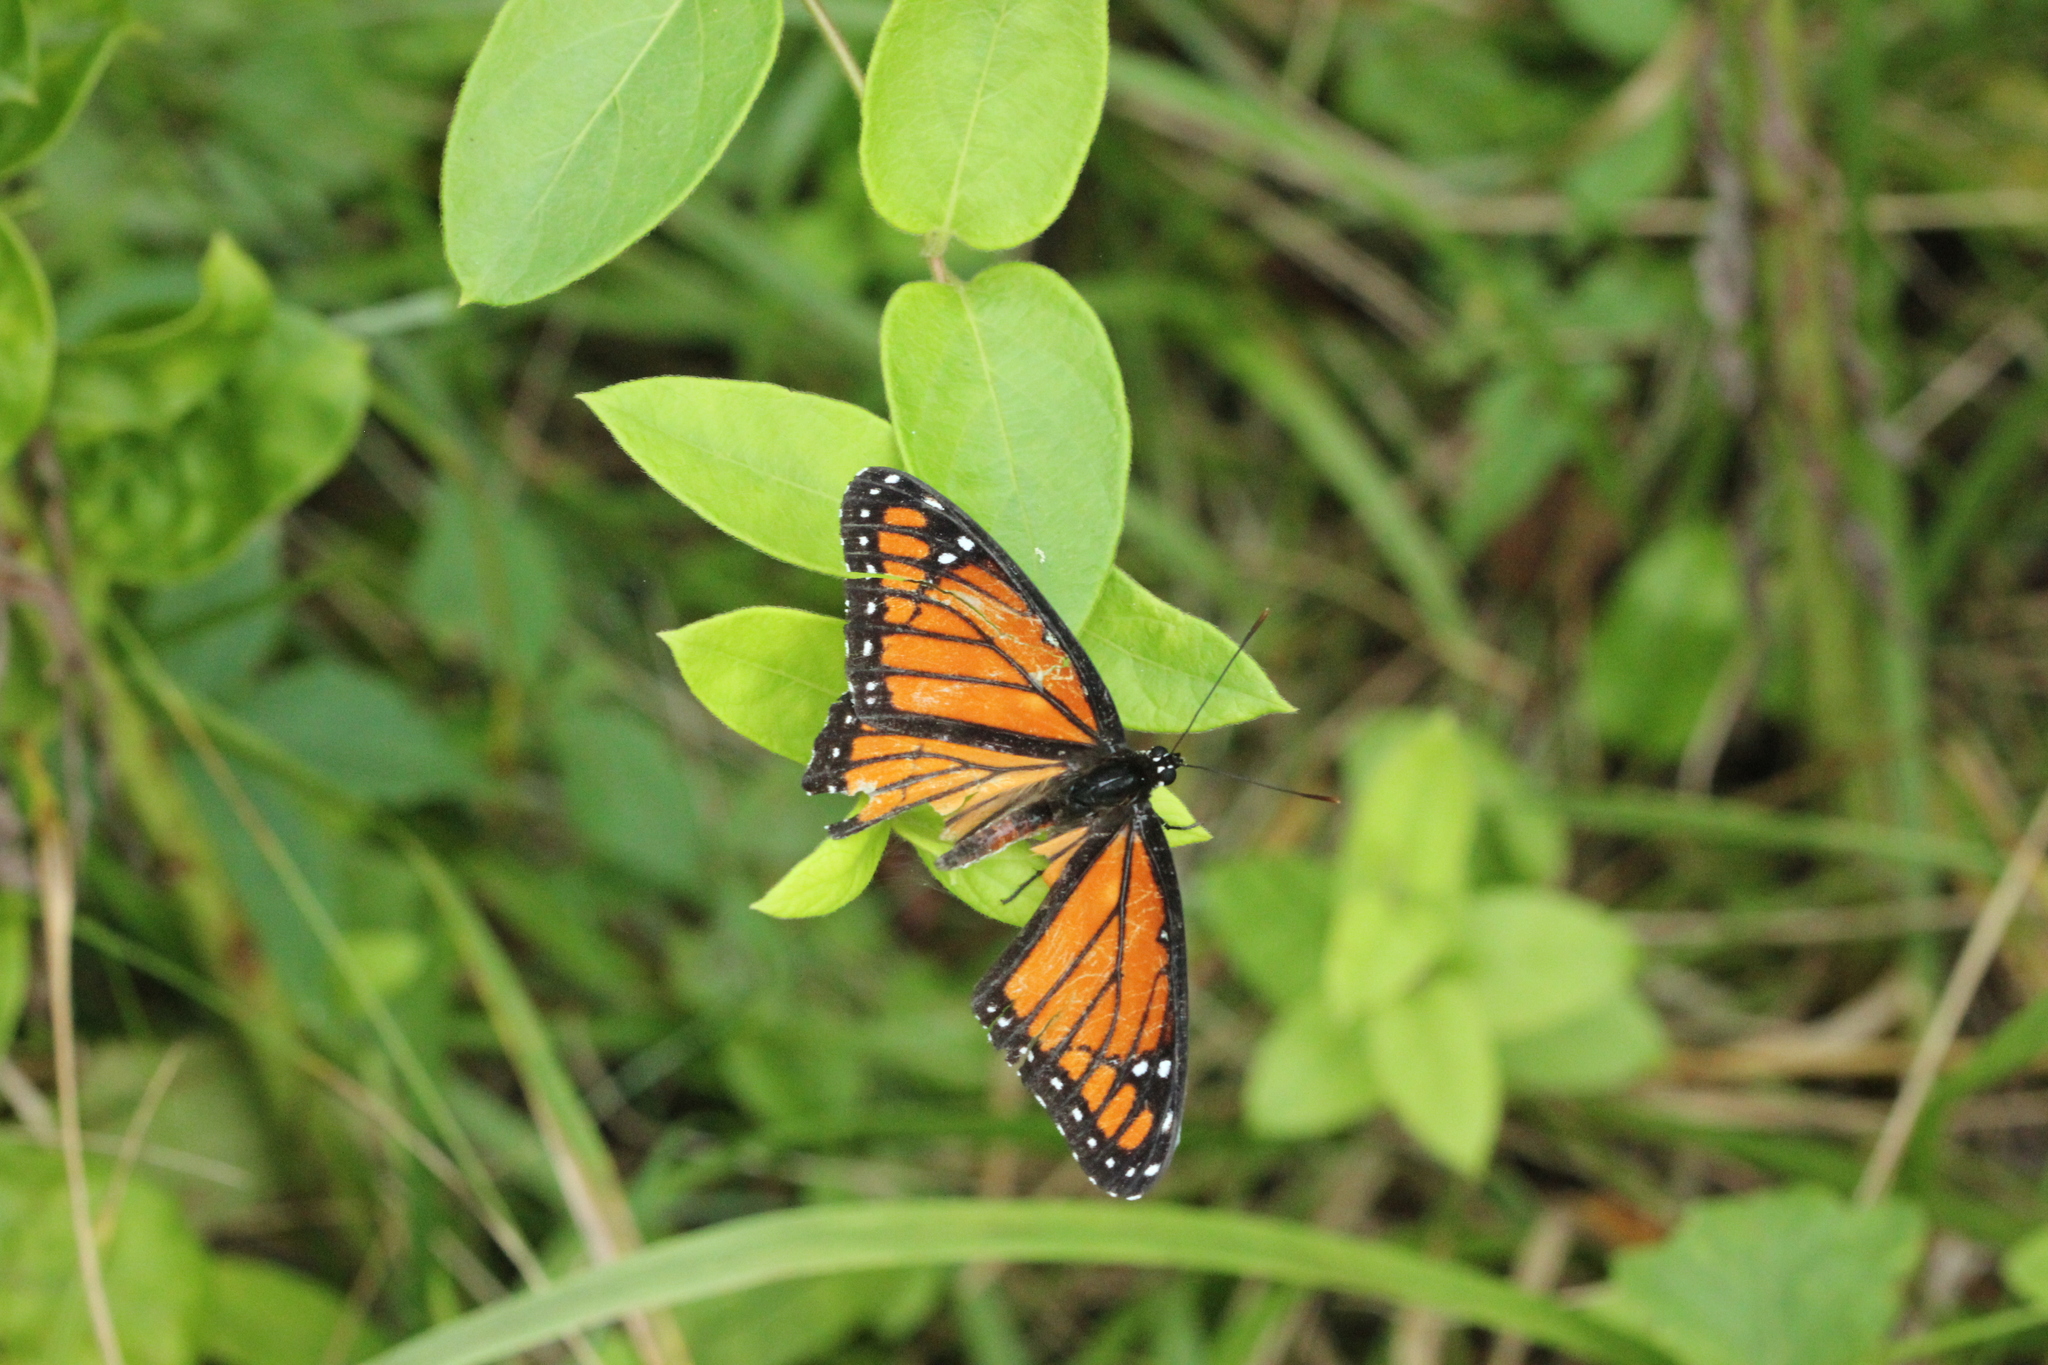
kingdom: Animalia
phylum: Arthropoda
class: Insecta
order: Lepidoptera
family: Nymphalidae
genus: Limenitis
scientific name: Limenitis archippus
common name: Viceroy
